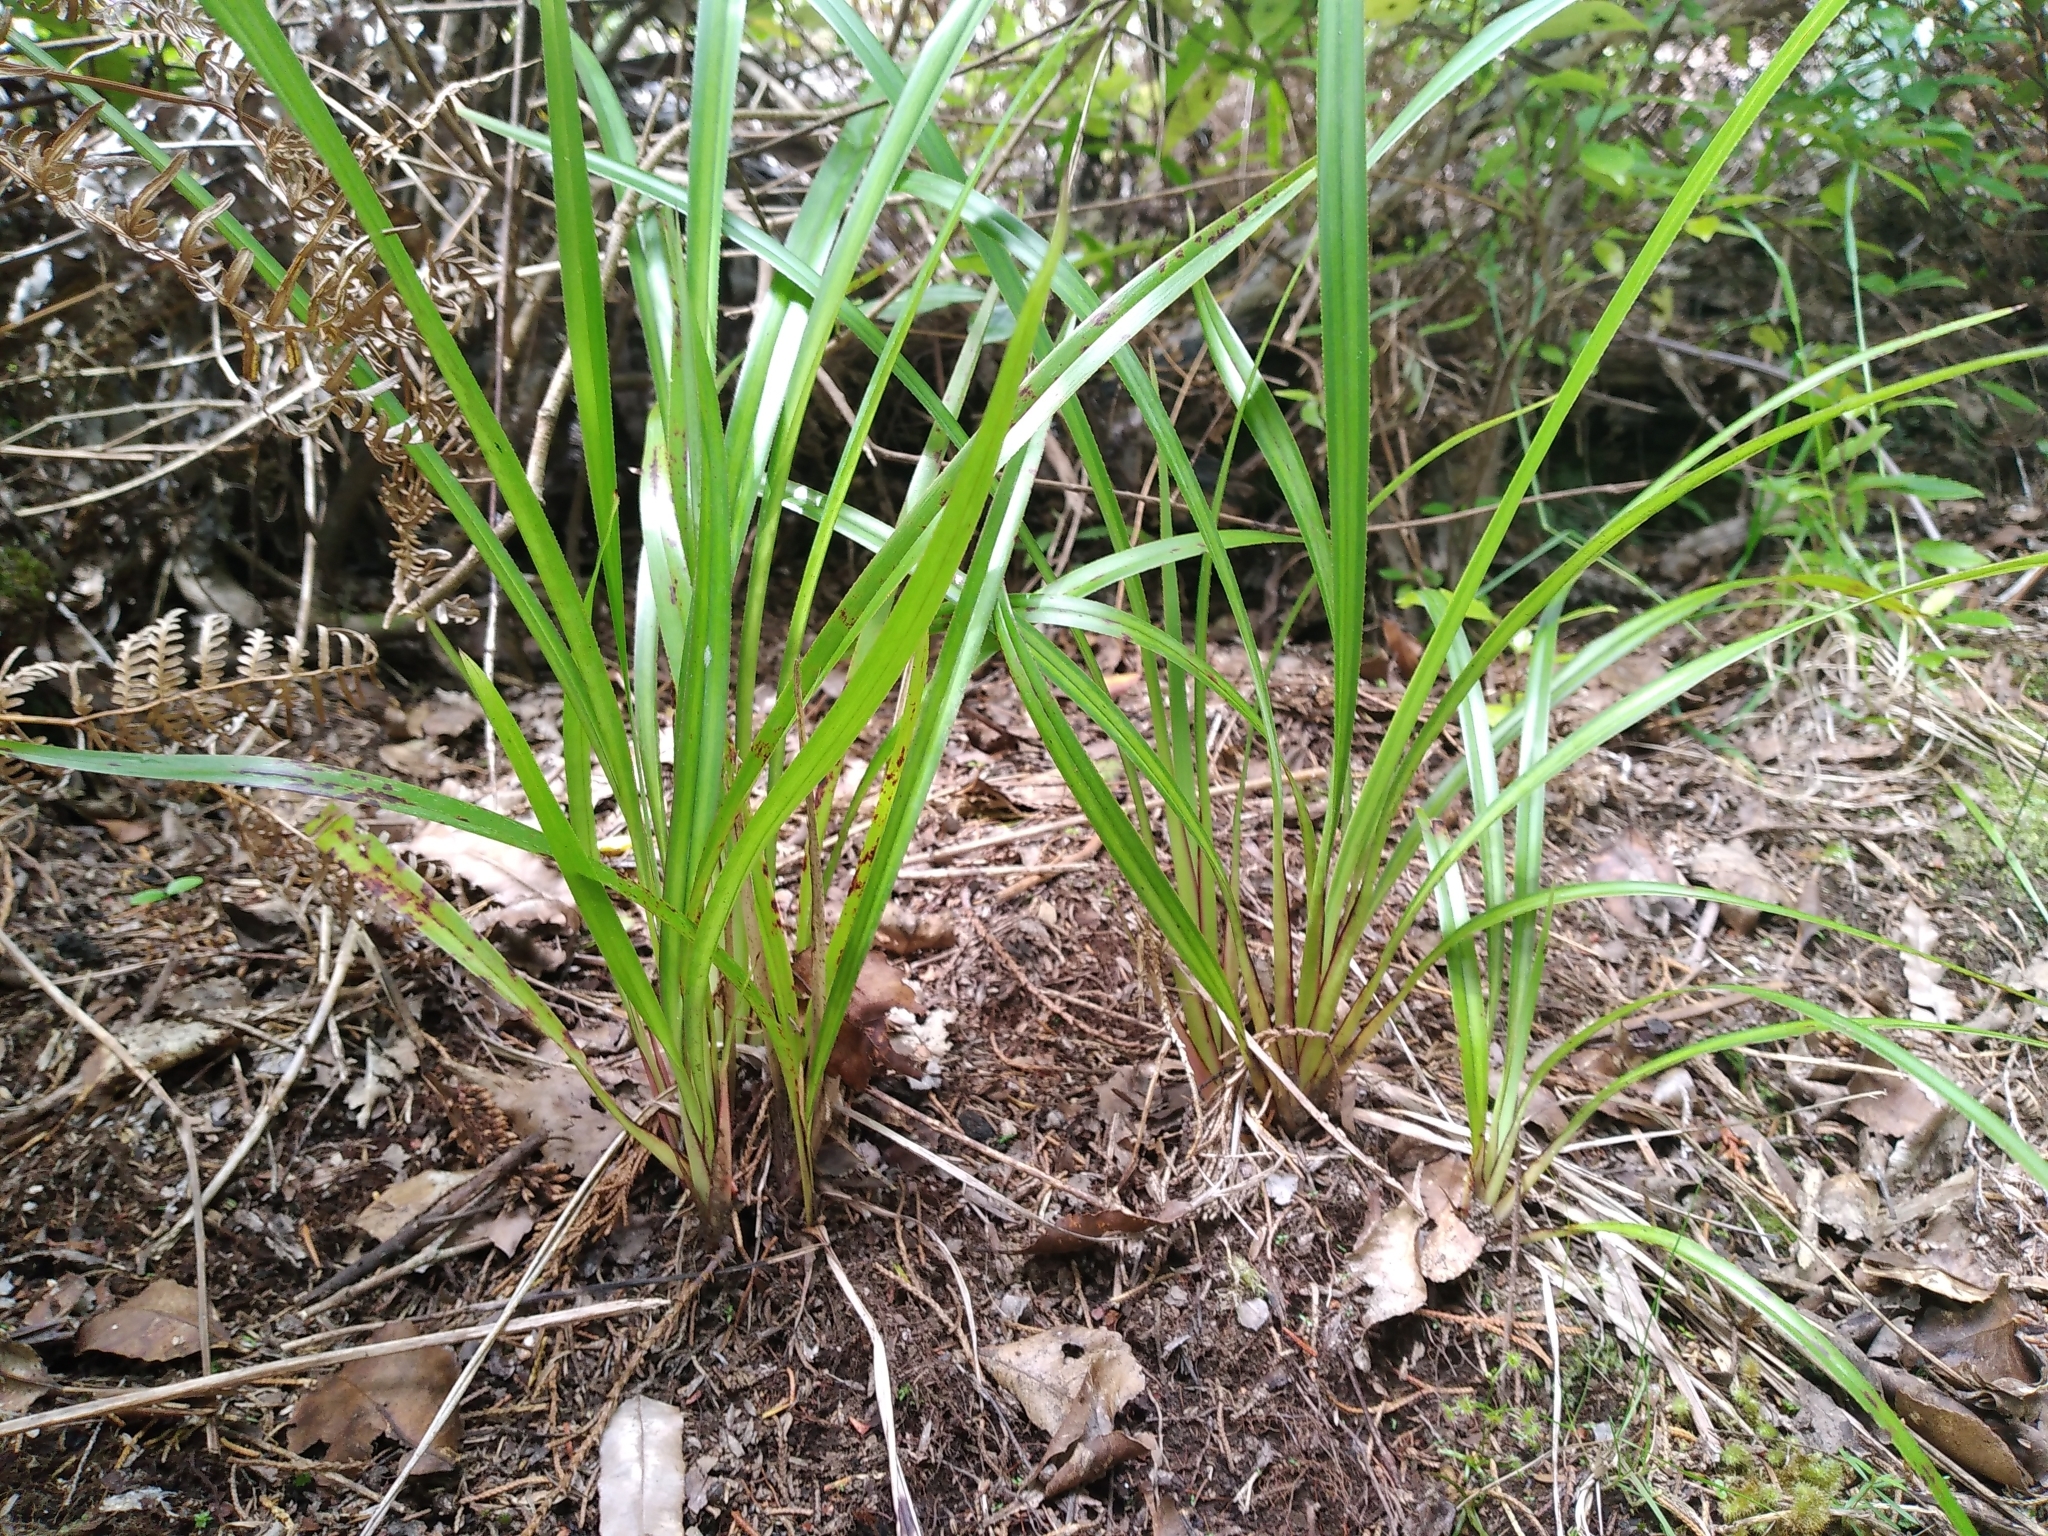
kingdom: Plantae
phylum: Tracheophyta
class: Liliopsida
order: Asparagales
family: Asphodelaceae
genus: Dianella
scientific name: Dianella nigra
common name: New zealand-blueberry
